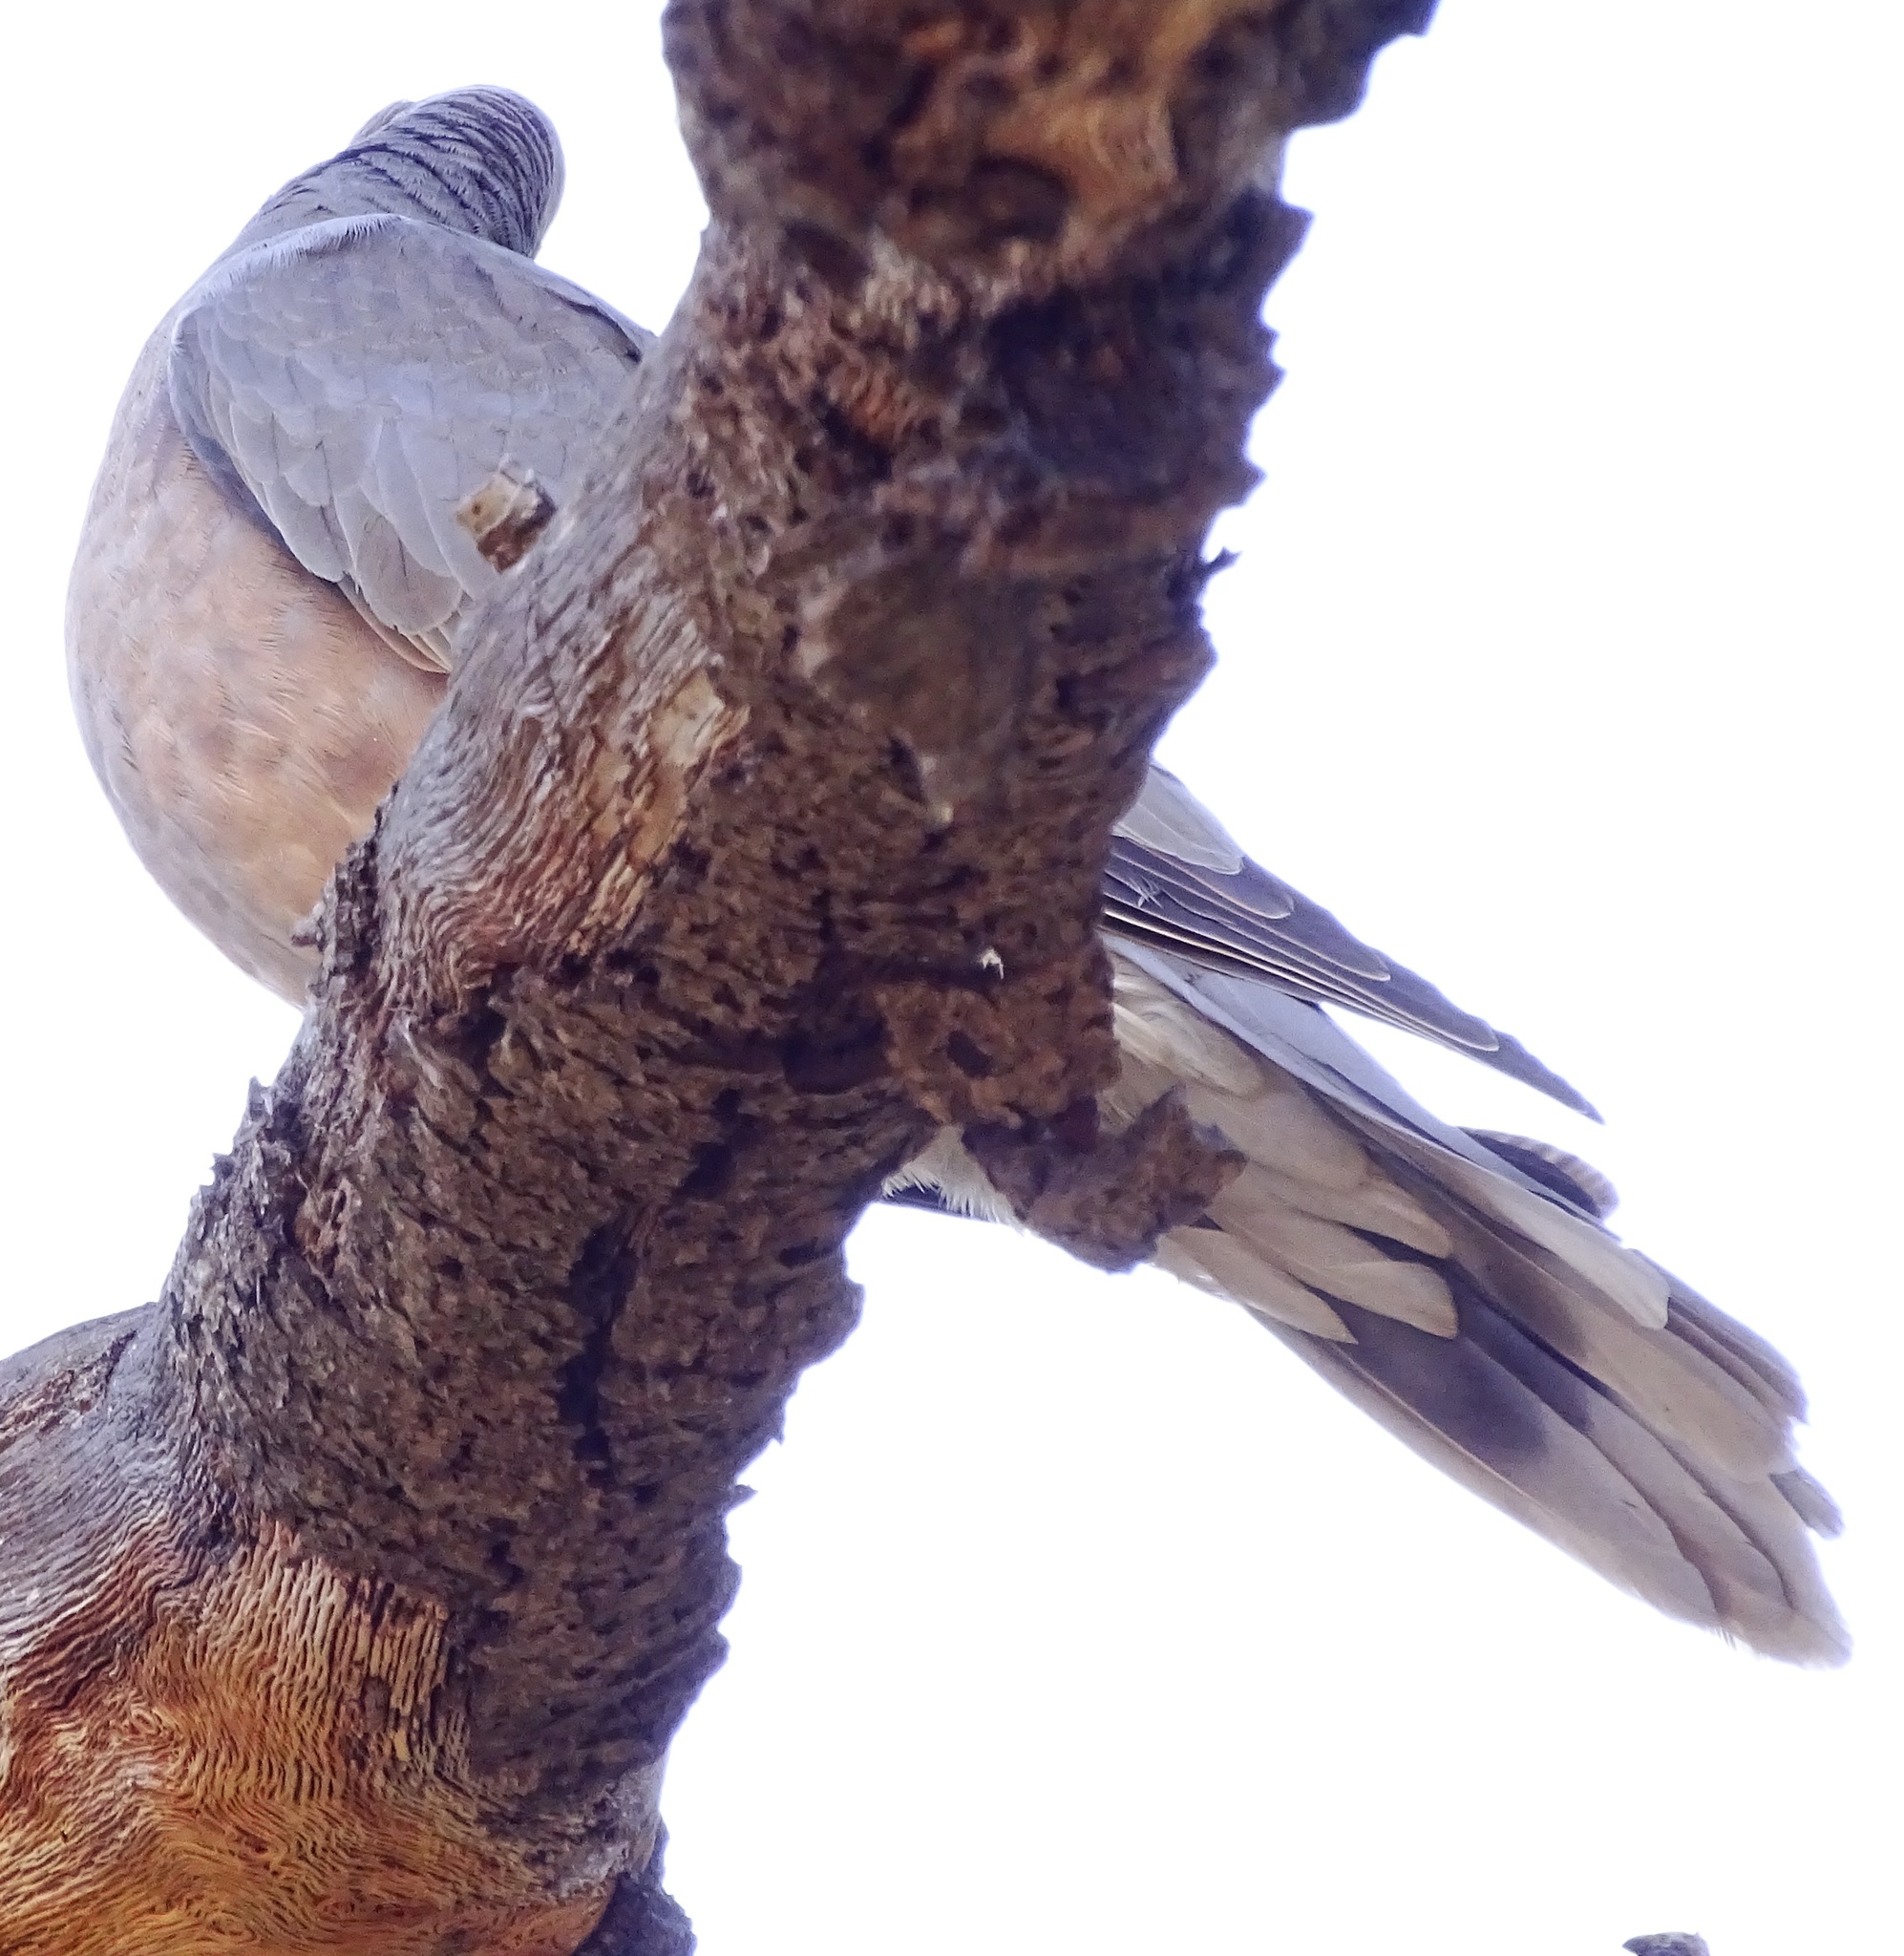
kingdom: Animalia
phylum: Chordata
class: Aves
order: Columbiformes
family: Columbidae
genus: Patagioenas
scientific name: Patagioenas fasciata
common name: Band-tailed pigeon
